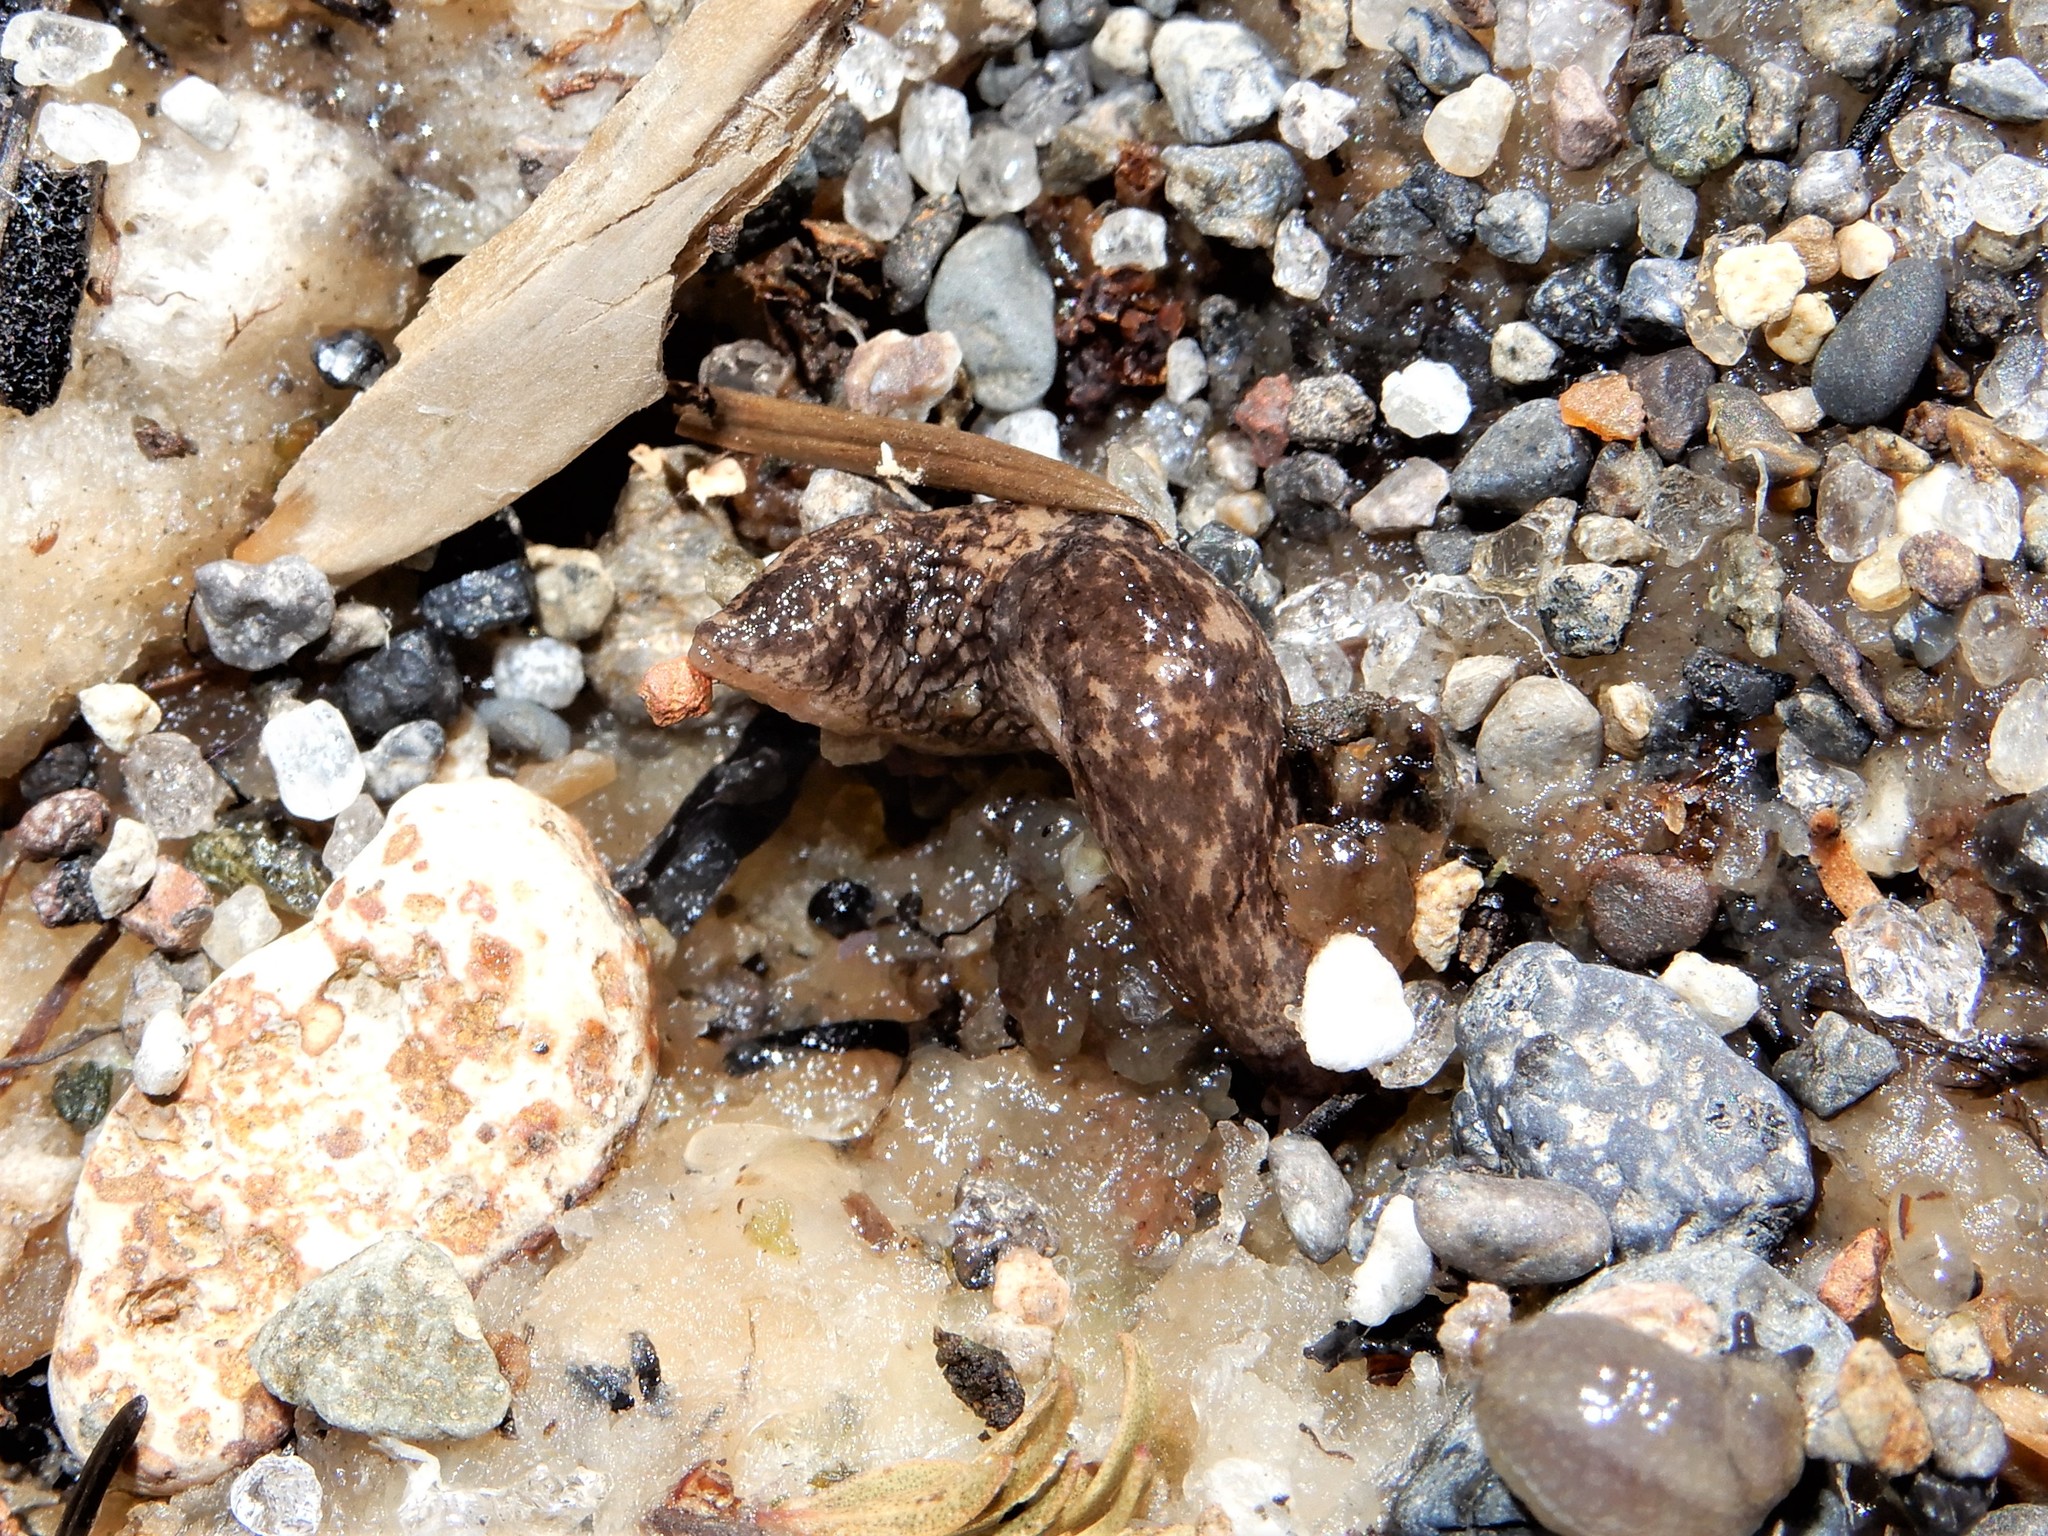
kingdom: Animalia
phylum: Mollusca
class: Gastropoda
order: Stylommatophora
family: Agriolimacidae
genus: Deroceras
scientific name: Deroceras reticulatum
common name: Gray field slug
